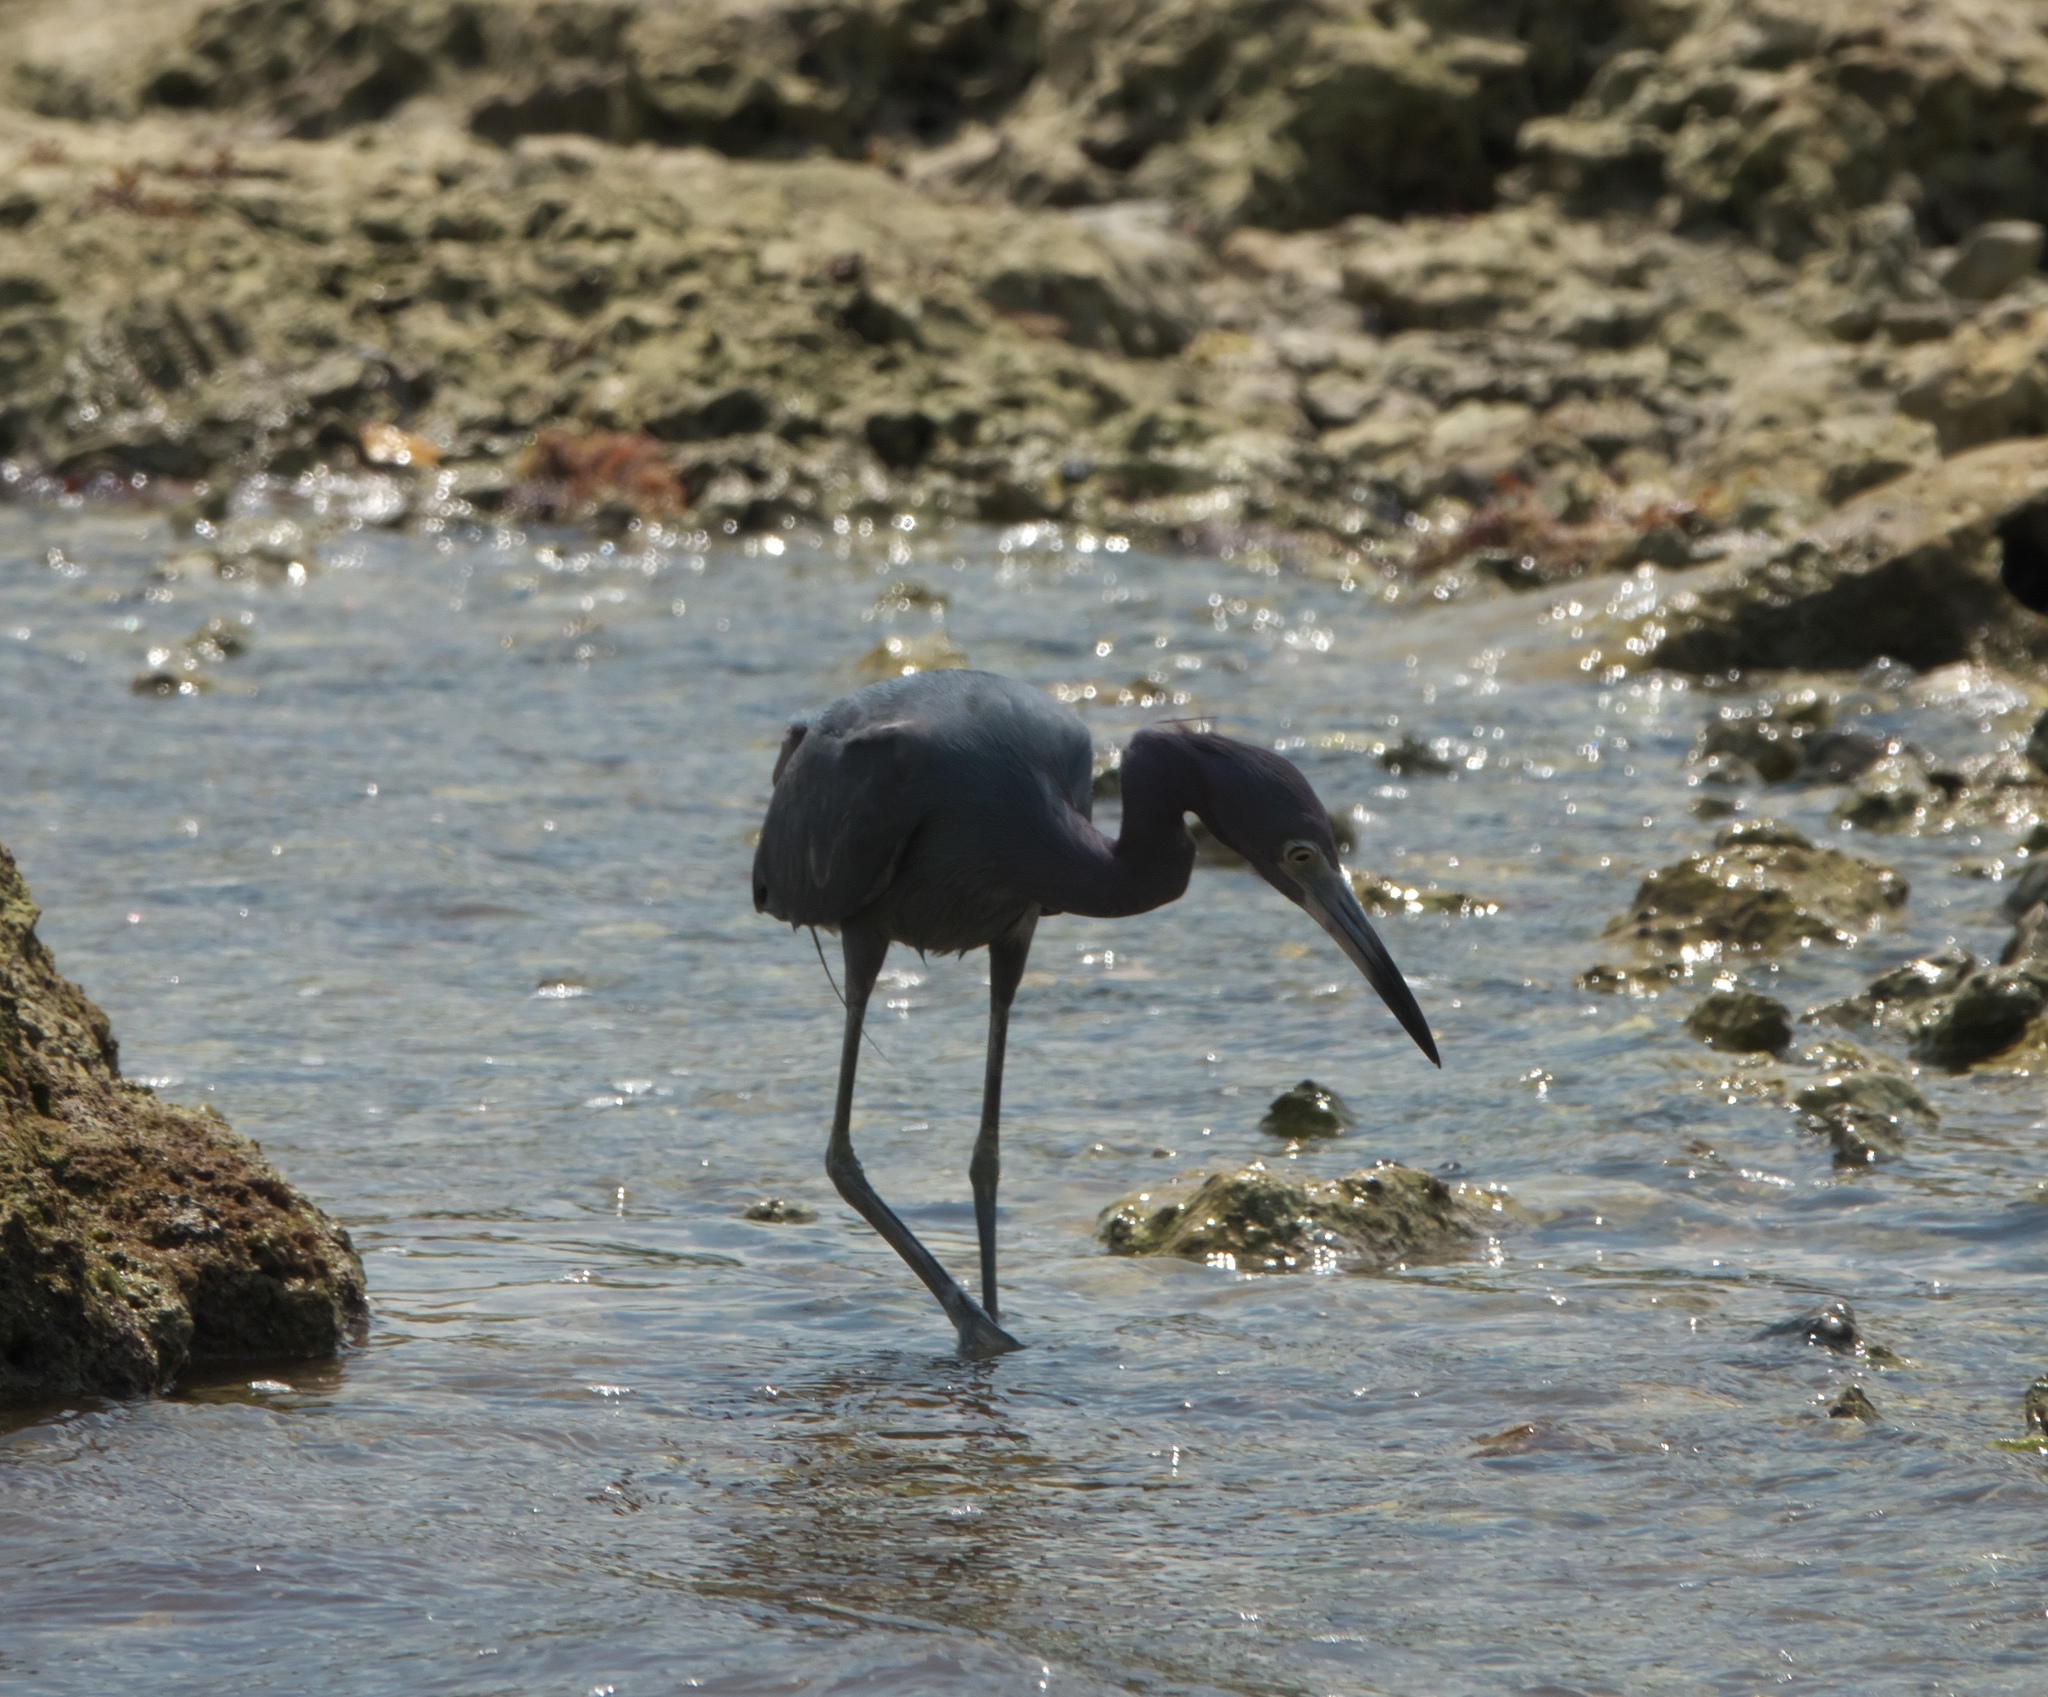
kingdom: Animalia
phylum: Chordata
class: Aves
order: Pelecaniformes
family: Ardeidae
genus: Egretta
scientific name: Egretta caerulea
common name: Little blue heron
